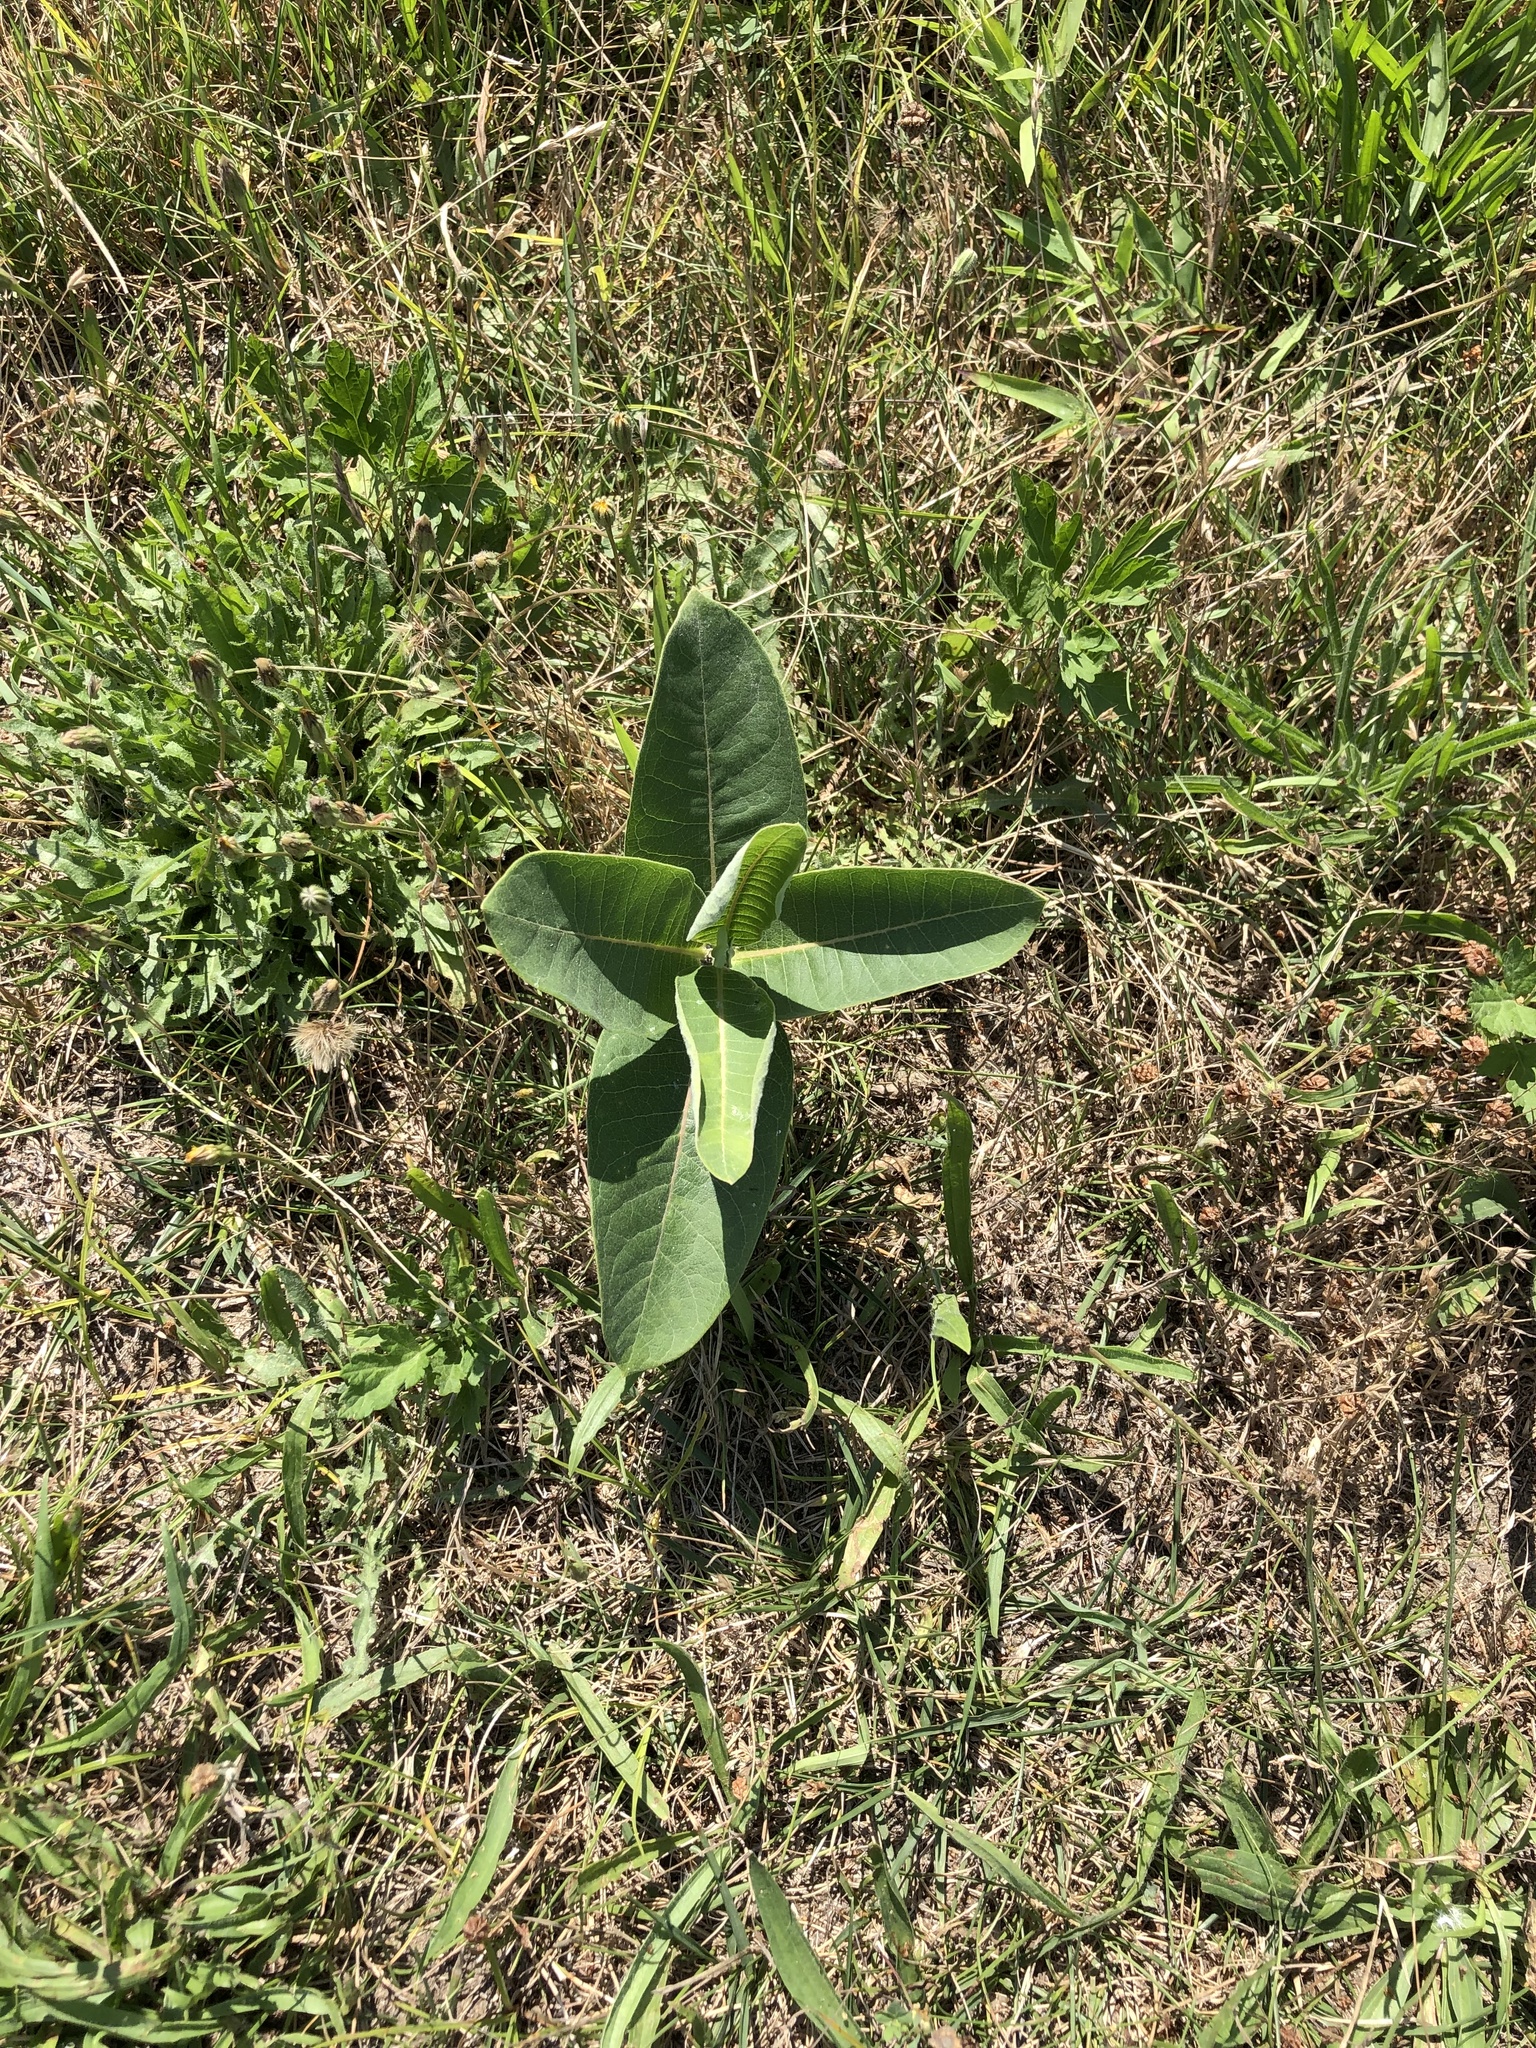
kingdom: Plantae
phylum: Tracheophyta
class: Magnoliopsida
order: Gentianales
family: Apocynaceae
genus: Asclepias
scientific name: Asclepias syriaca
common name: Common milkweed
